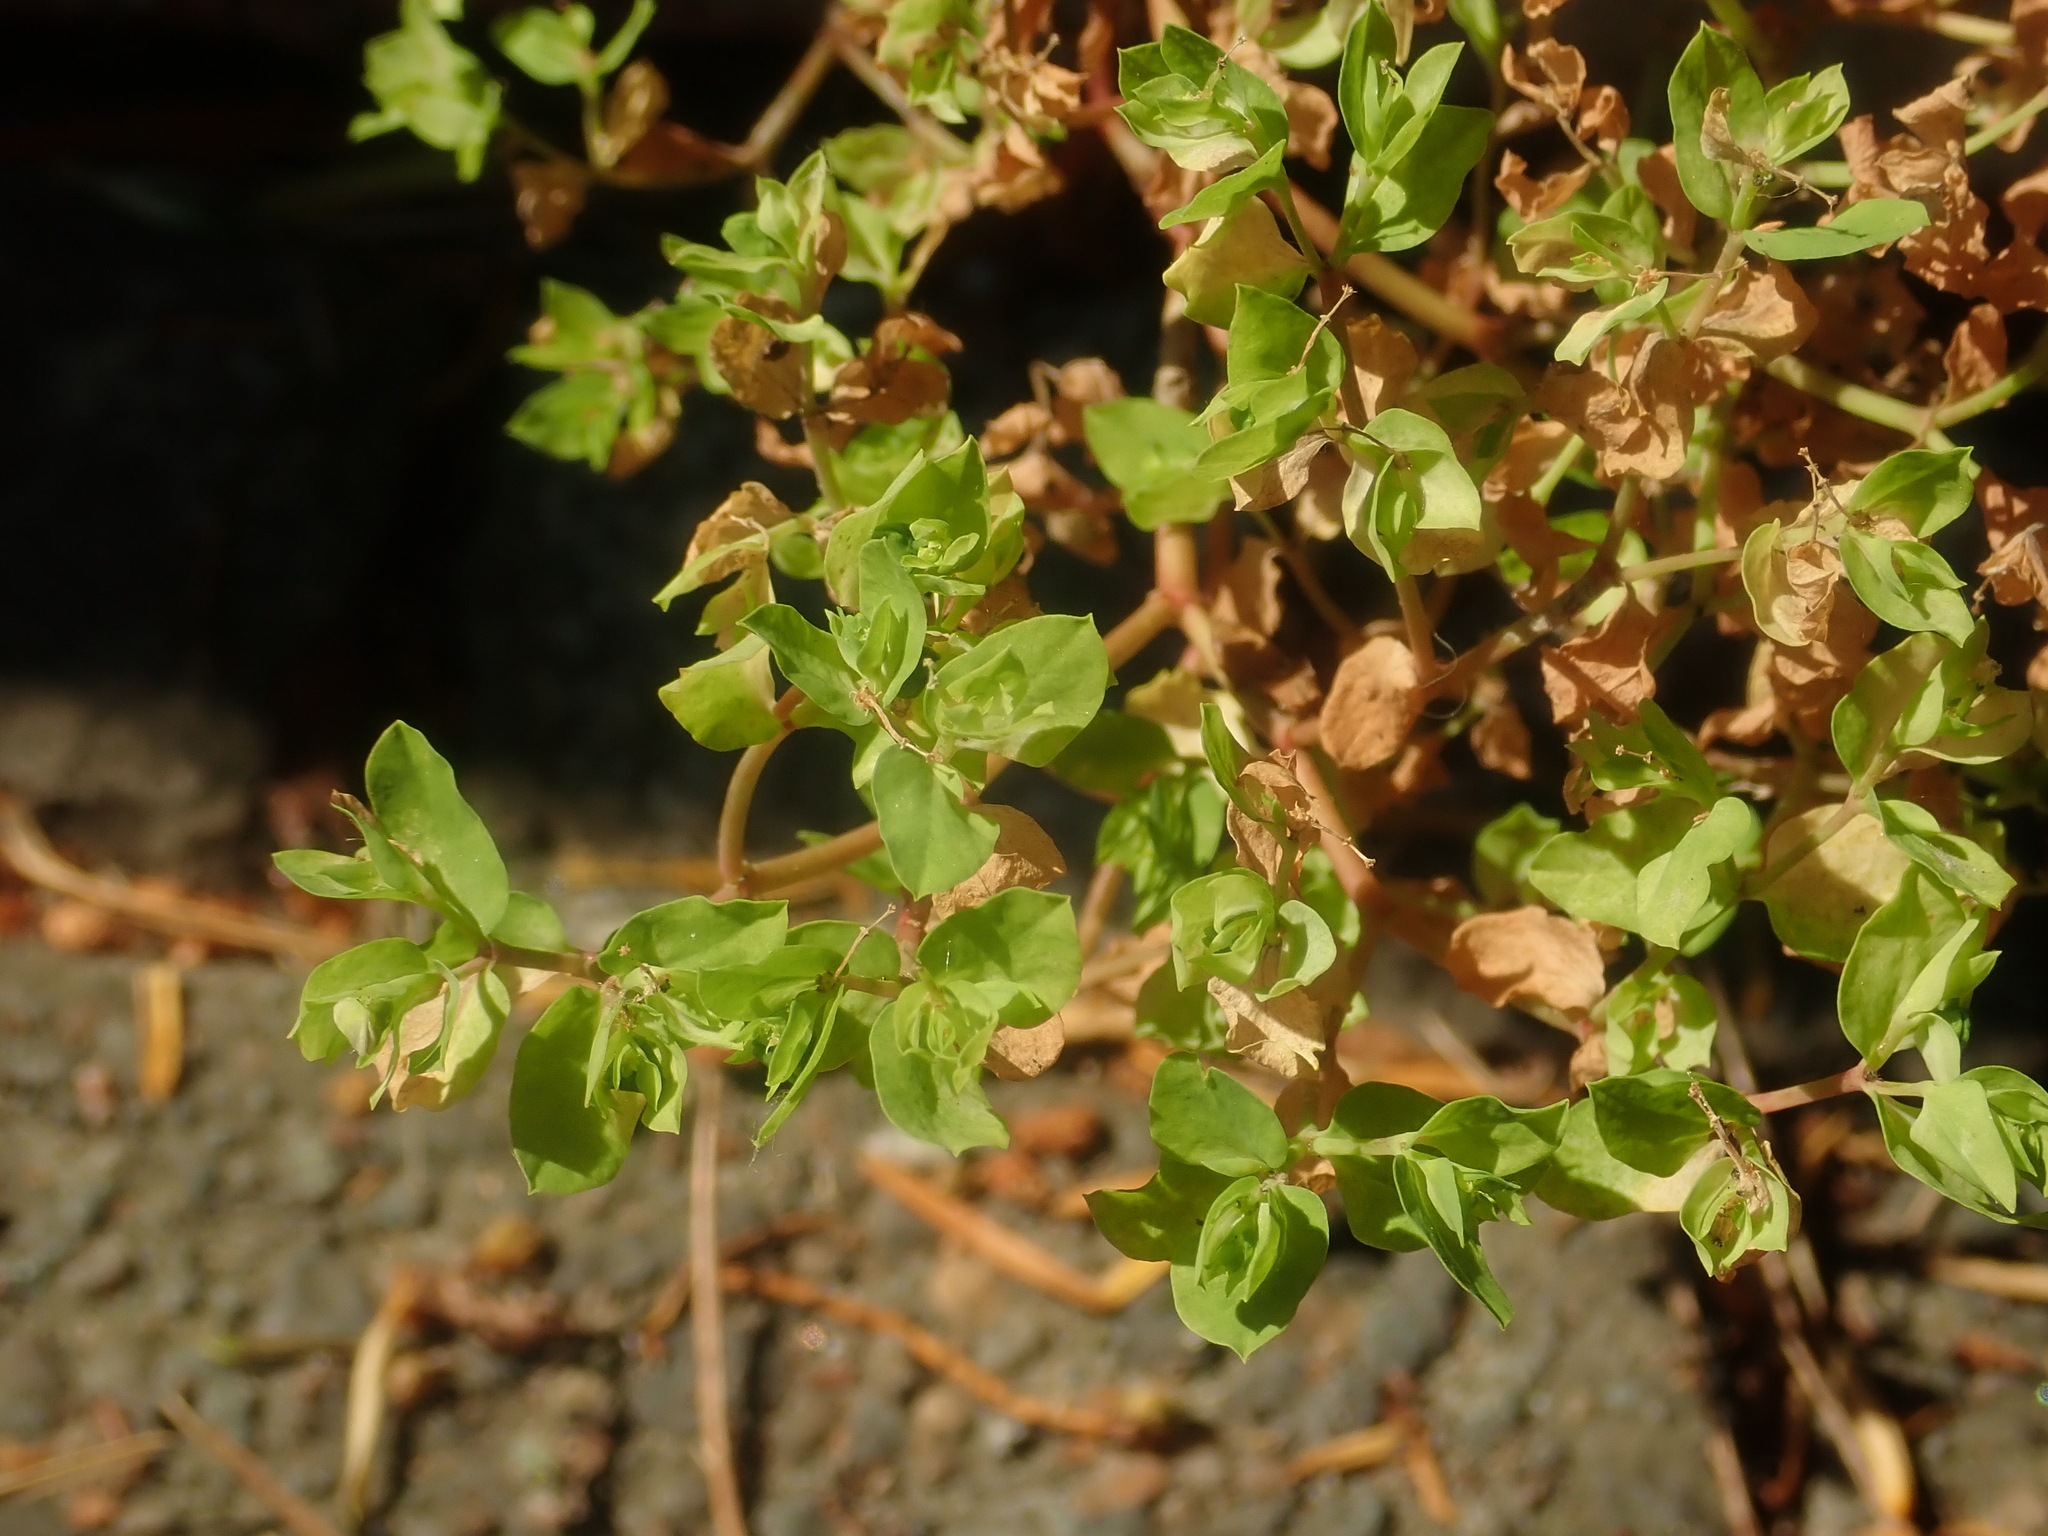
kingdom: Plantae
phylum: Tracheophyta
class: Magnoliopsida
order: Malpighiales
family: Euphorbiaceae
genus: Euphorbia
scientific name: Euphorbia peplus
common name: Petty spurge
